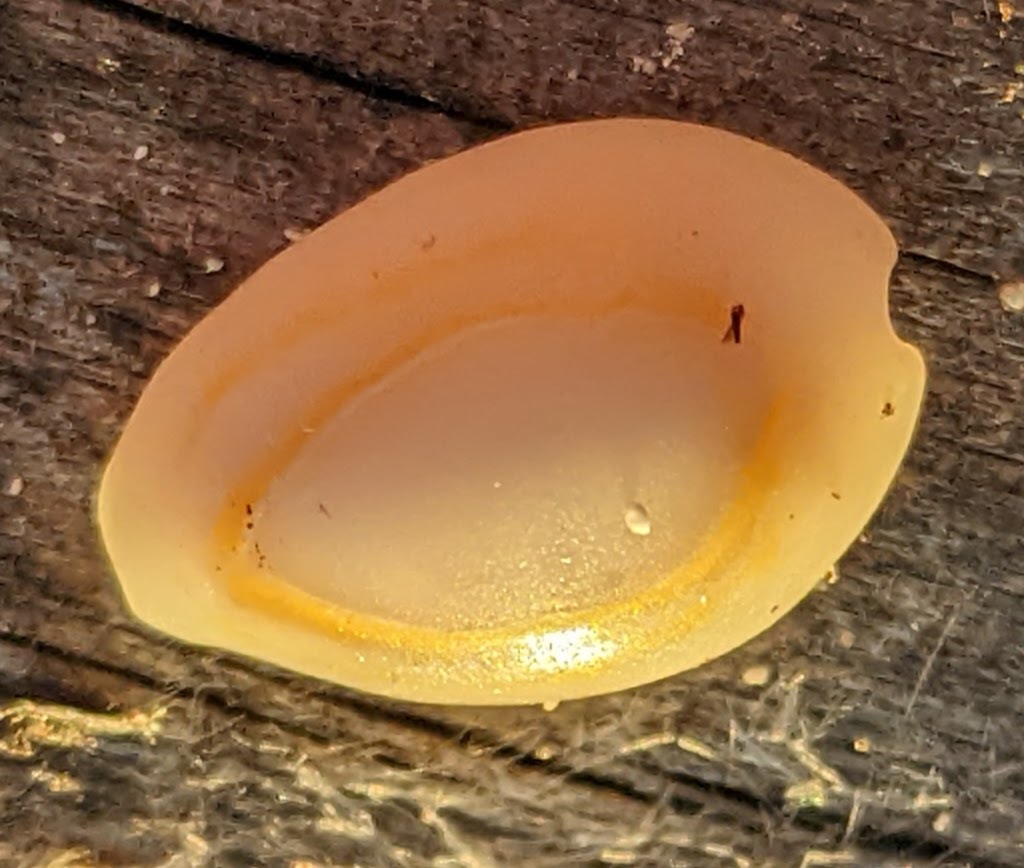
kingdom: Animalia
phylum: Mollusca
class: Gastropoda
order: Littorinimorpha
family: Cypraeidae
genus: Monetaria
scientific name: Monetaria annulus
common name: Ring cowrie
